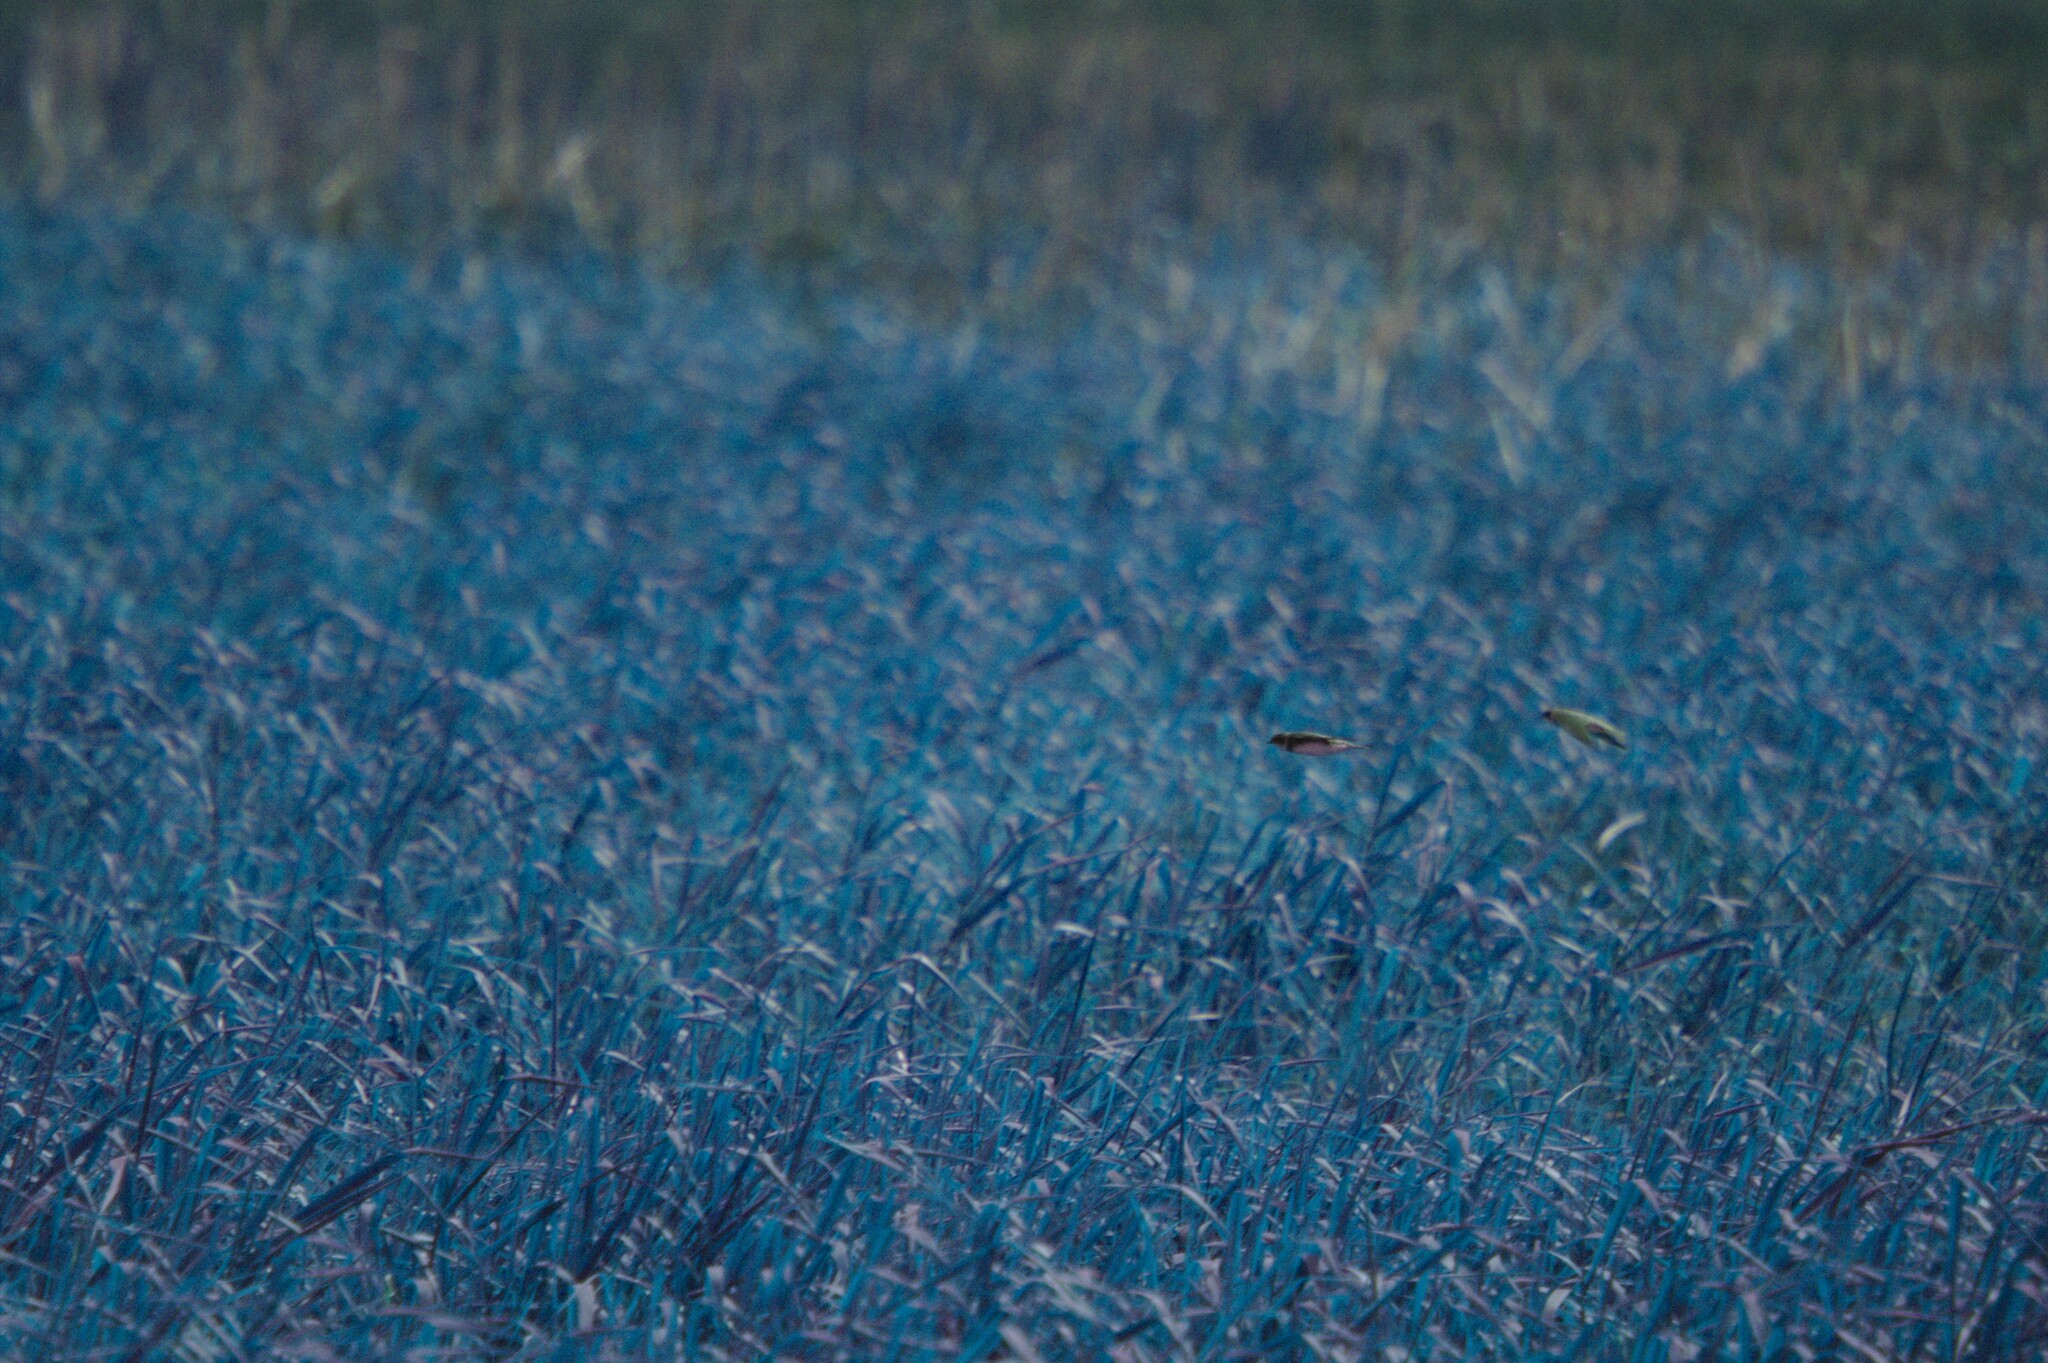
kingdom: Animalia
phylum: Chordata
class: Aves
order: Passeriformes
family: Hirundinidae
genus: Riparia
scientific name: Riparia riparia
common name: Sand martin
